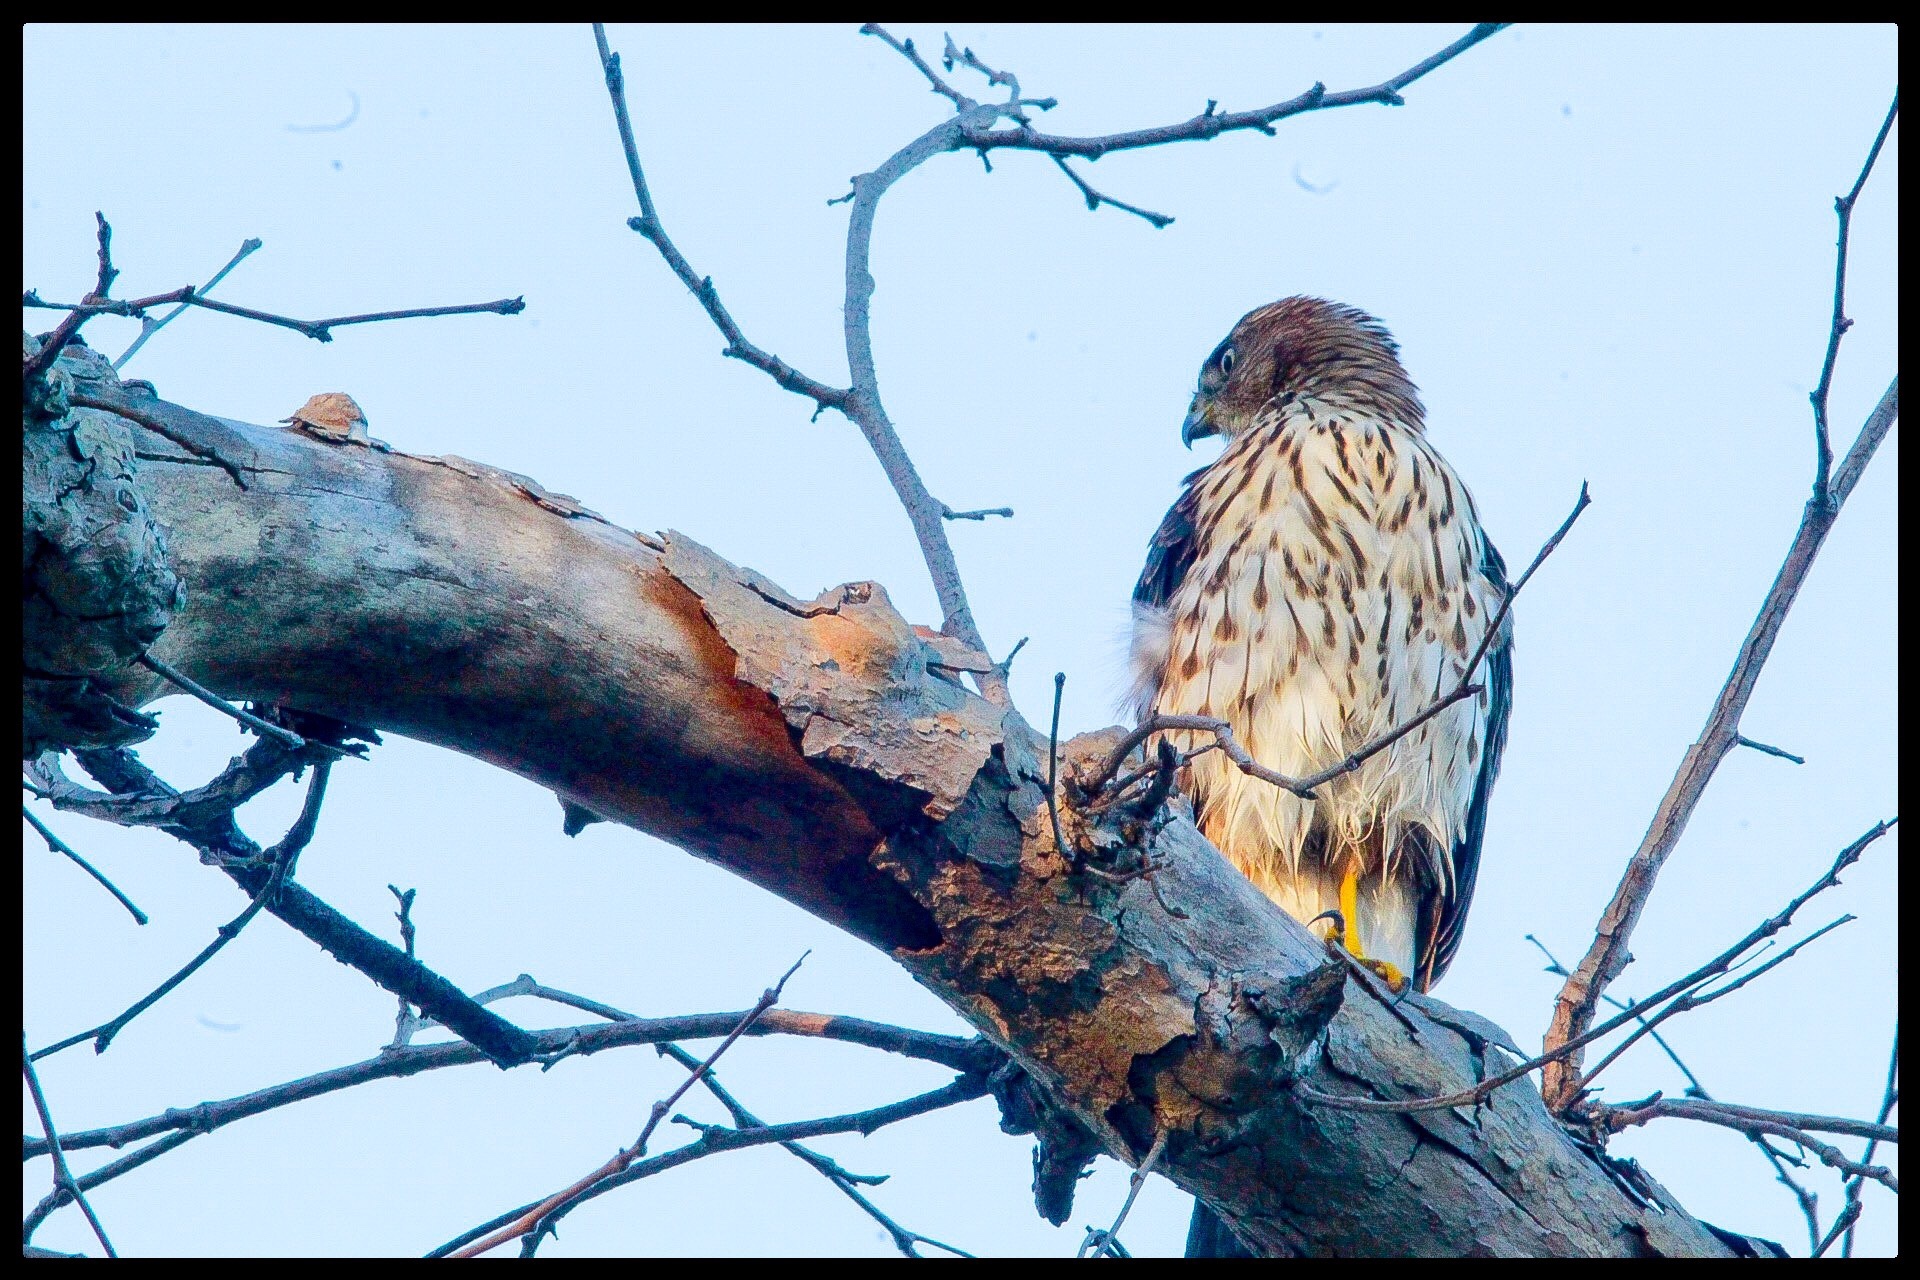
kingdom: Animalia
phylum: Chordata
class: Aves
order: Accipitriformes
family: Accipitridae
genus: Accipiter
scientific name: Accipiter cooperii
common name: Cooper's hawk
